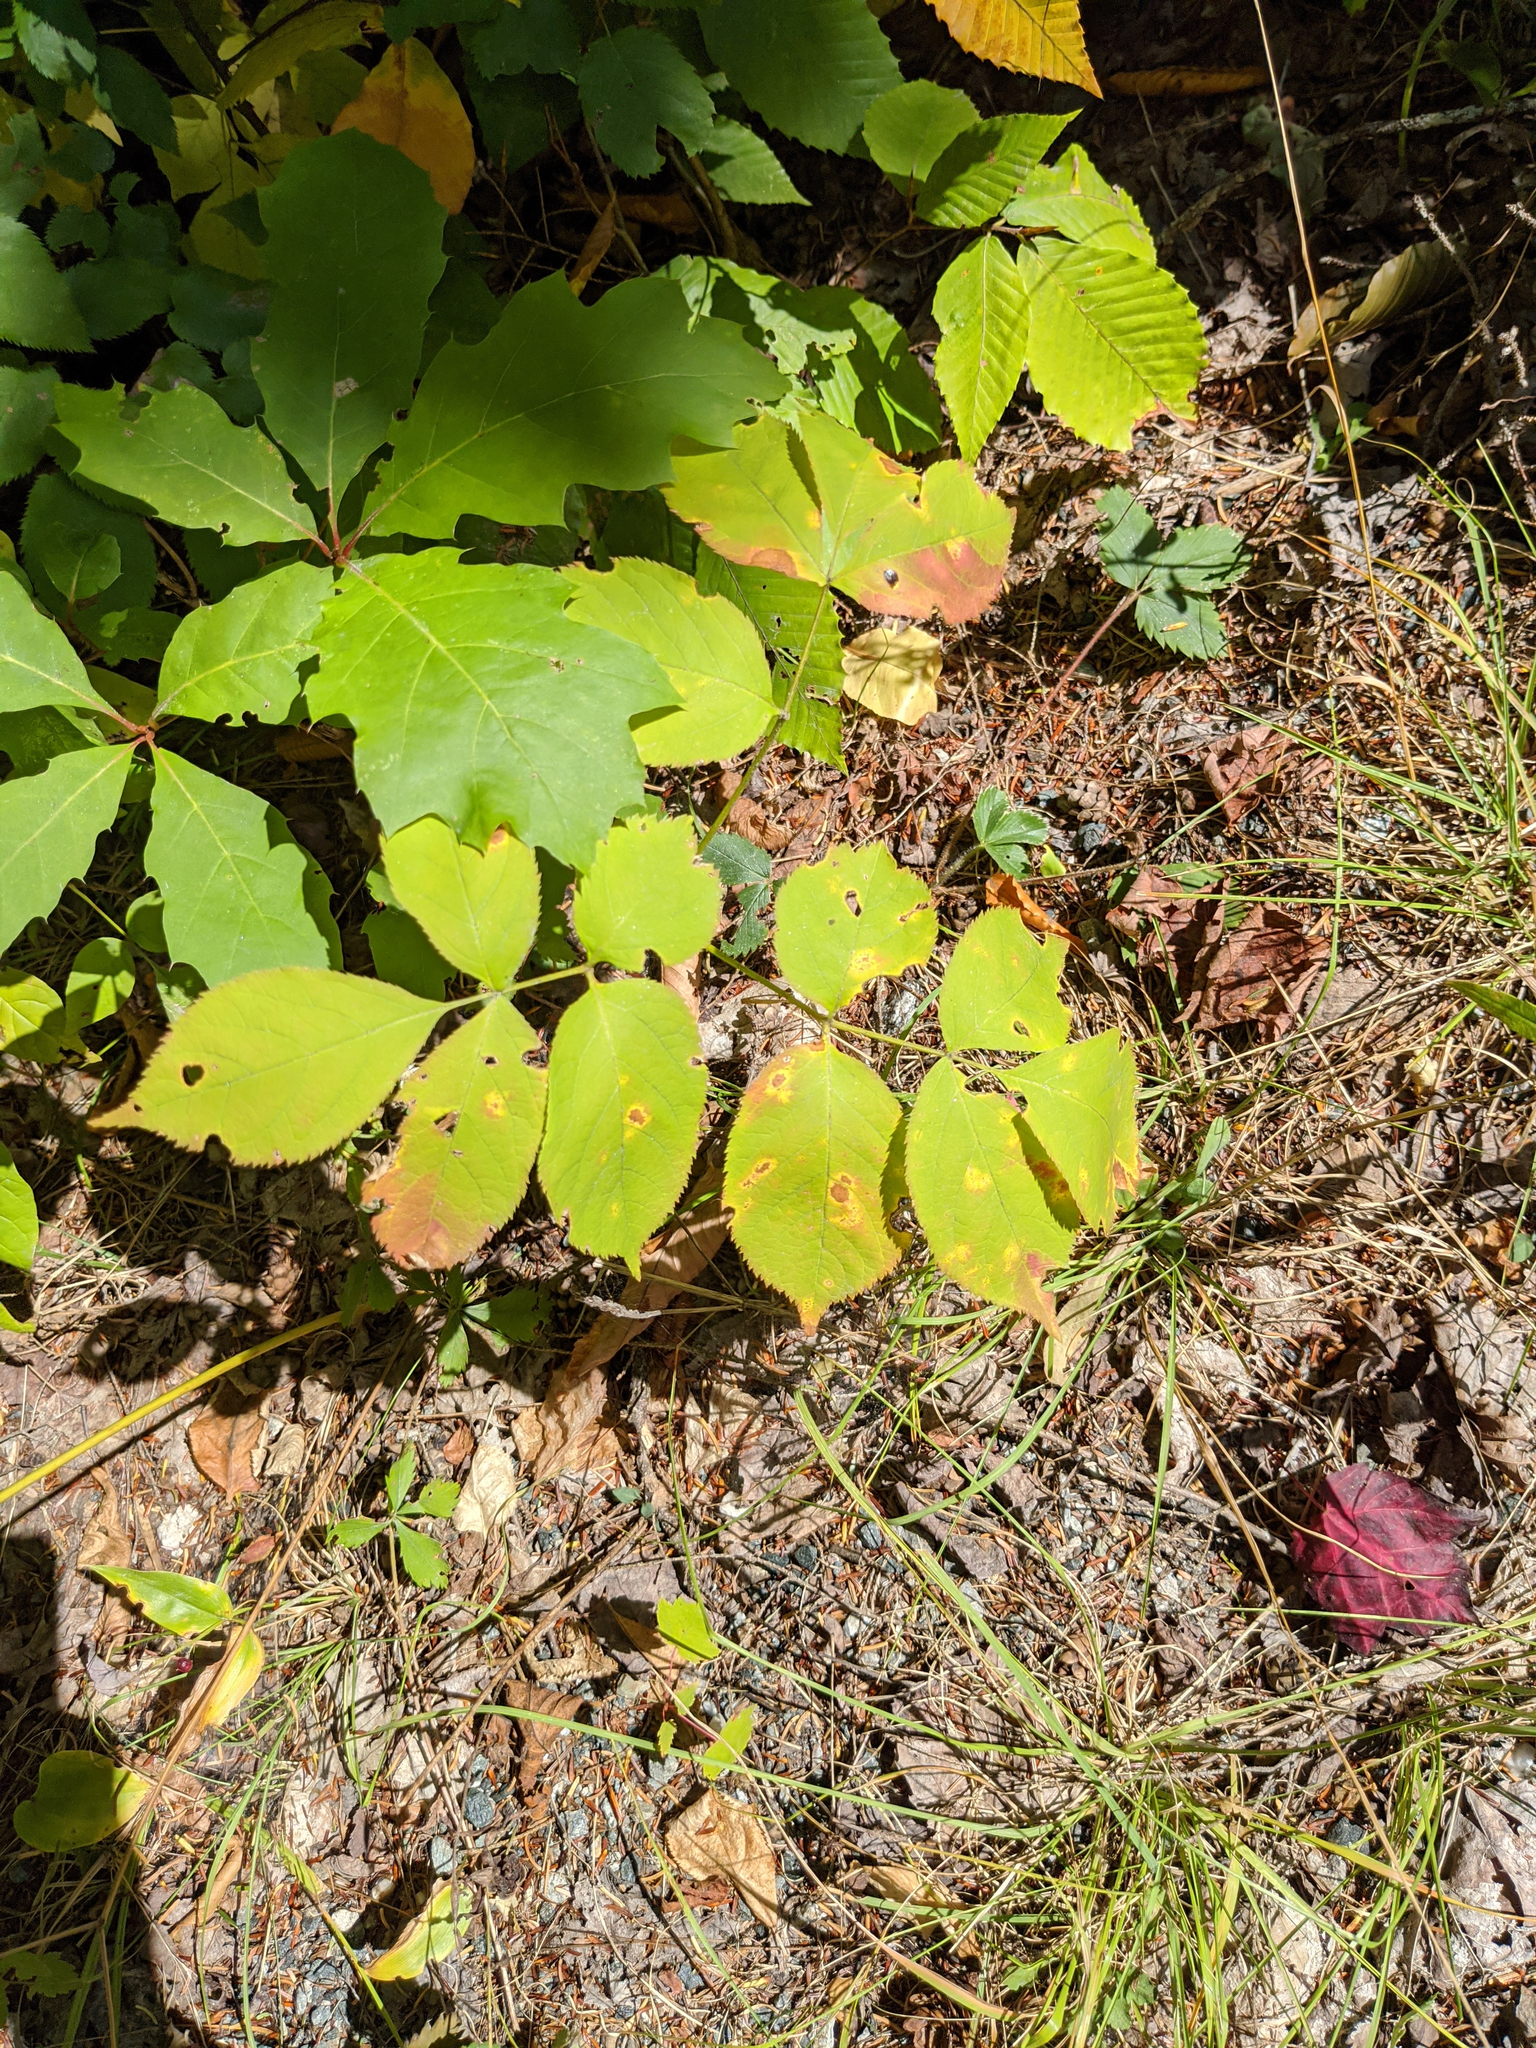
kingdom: Plantae
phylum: Tracheophyta
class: Magnoliopsida
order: Apiales
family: Araliaceae
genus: Aralia
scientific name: Aralia nudicaulis
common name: Wild sarsaparilla
